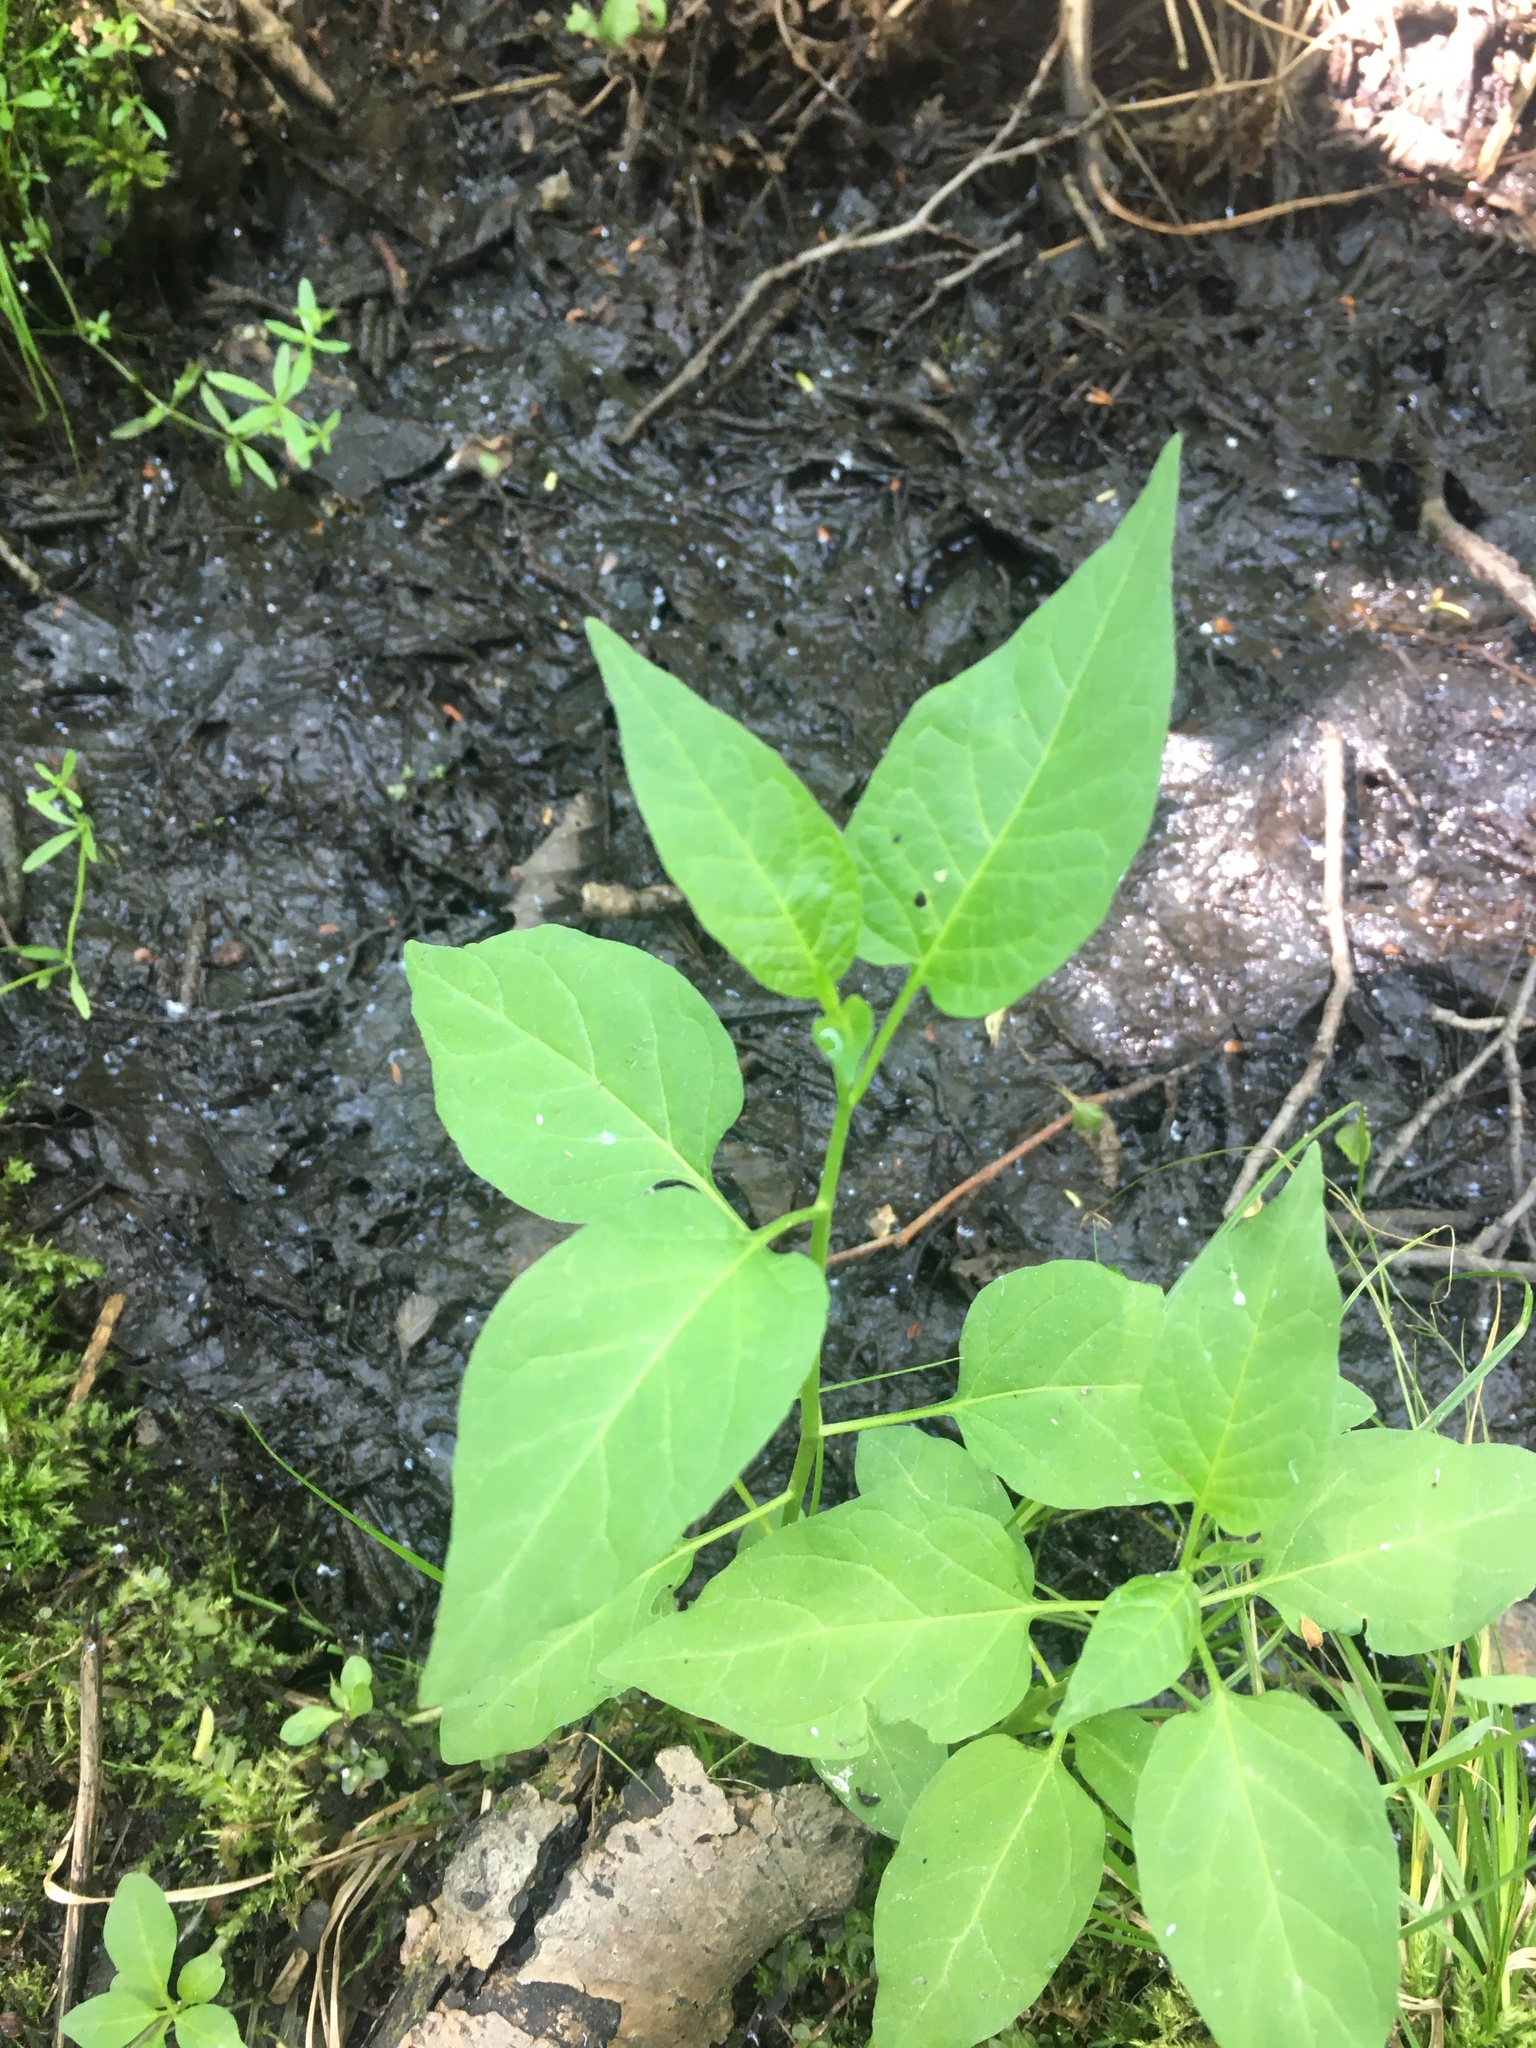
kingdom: Plantae
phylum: Tracheophyta
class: Magnoliopsida
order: Solanales
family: Solanaceae
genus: Solanum
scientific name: Solanum dulcamara
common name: Climbing nightshade
